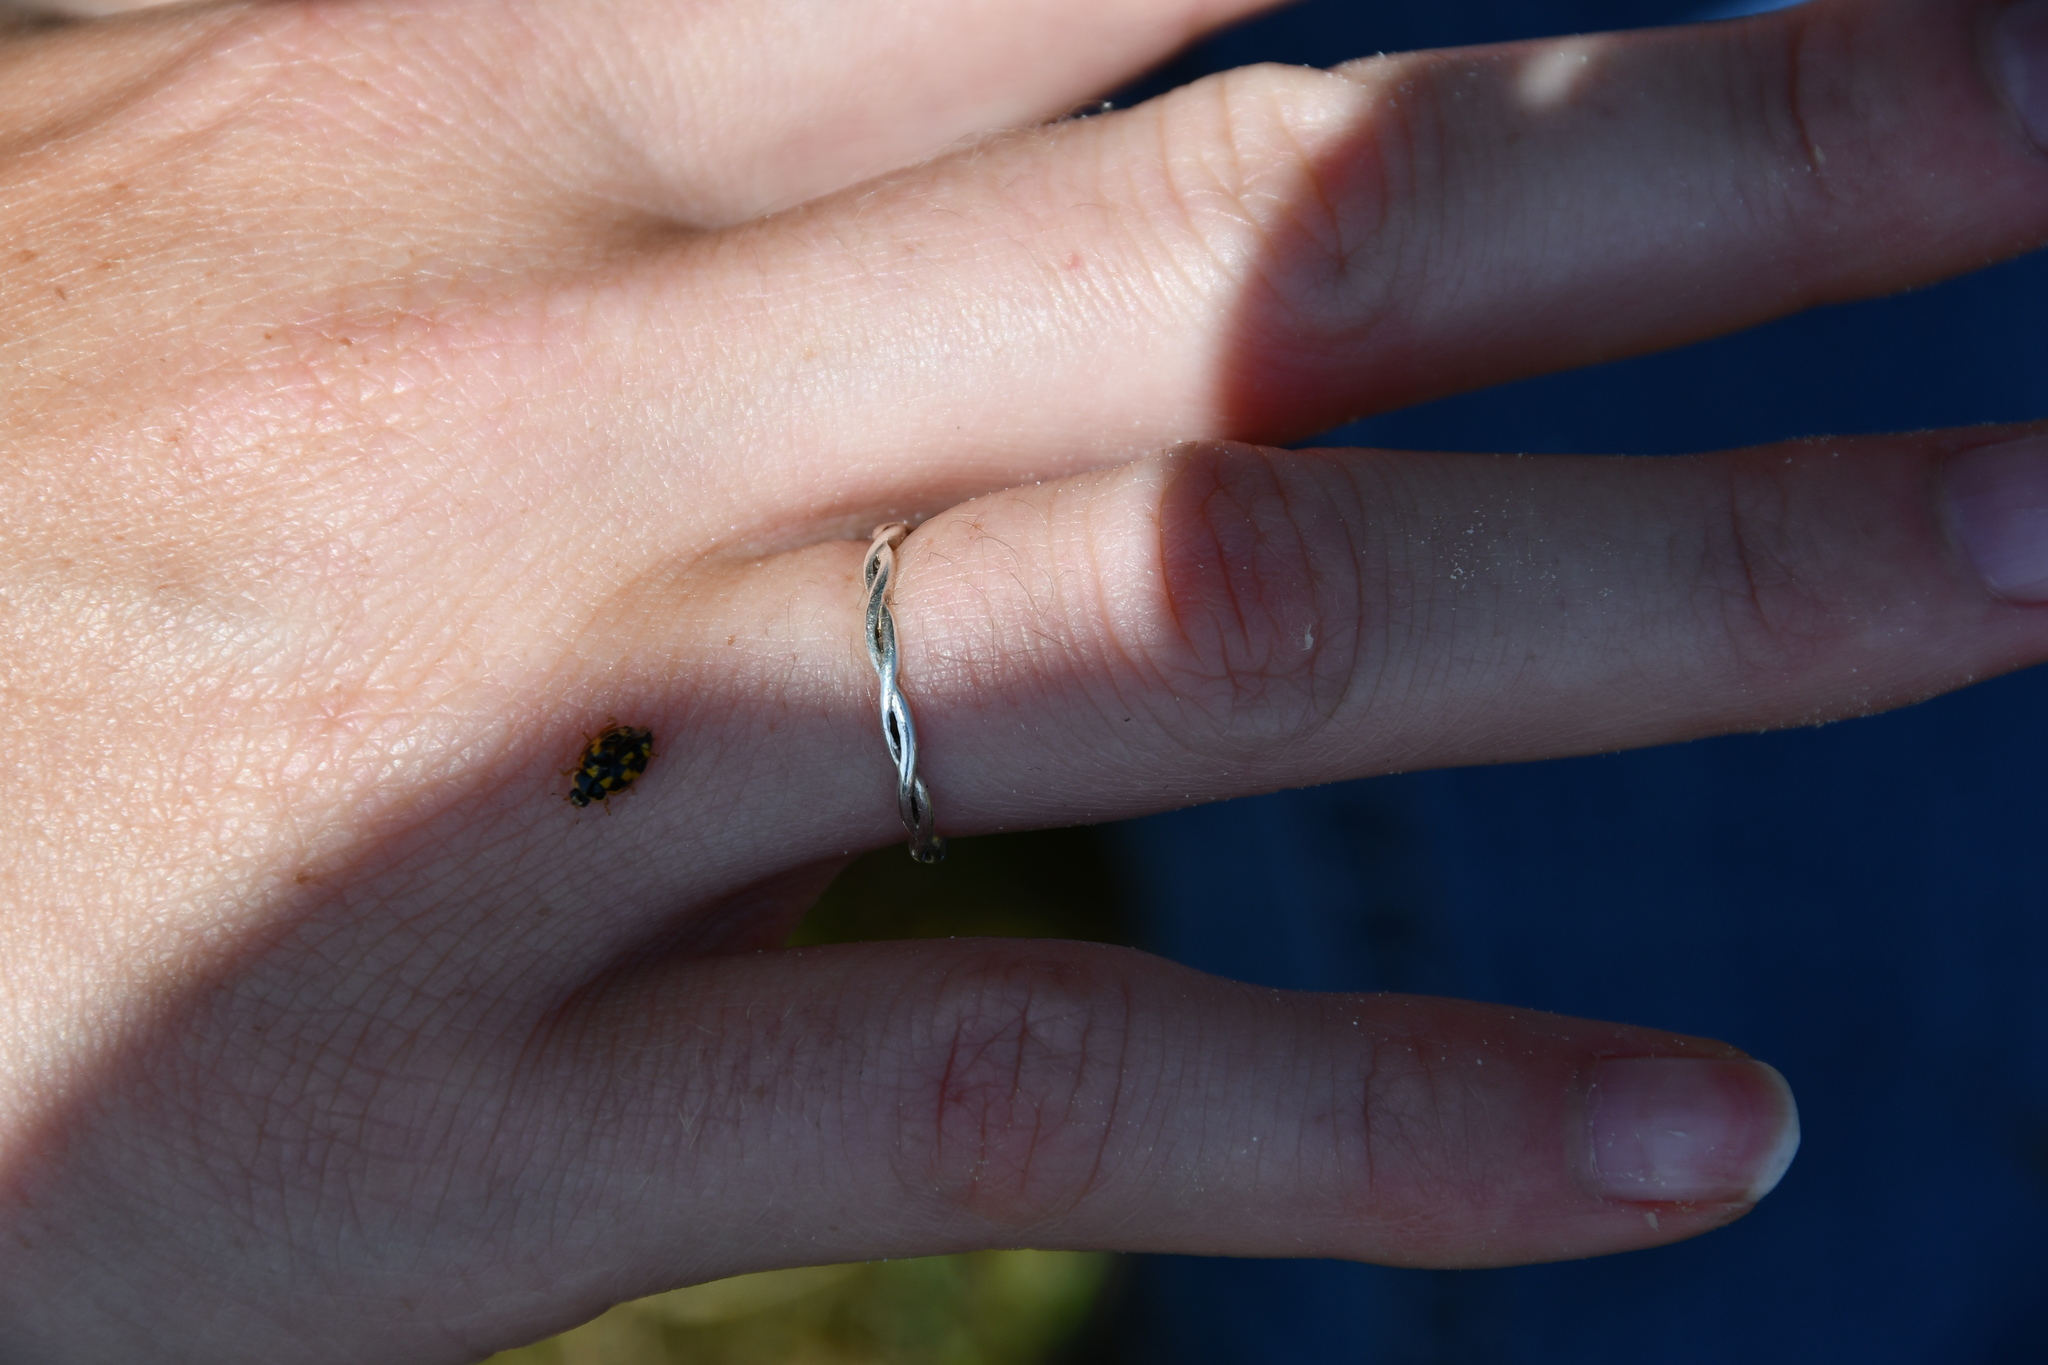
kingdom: Animalia
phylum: Arthropoda
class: Insecta
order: Coleoptera
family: Coccinellidae
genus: Propylaea
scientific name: Propylaea quatuordecimpunctata
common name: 14-spotted ladybird beetle
